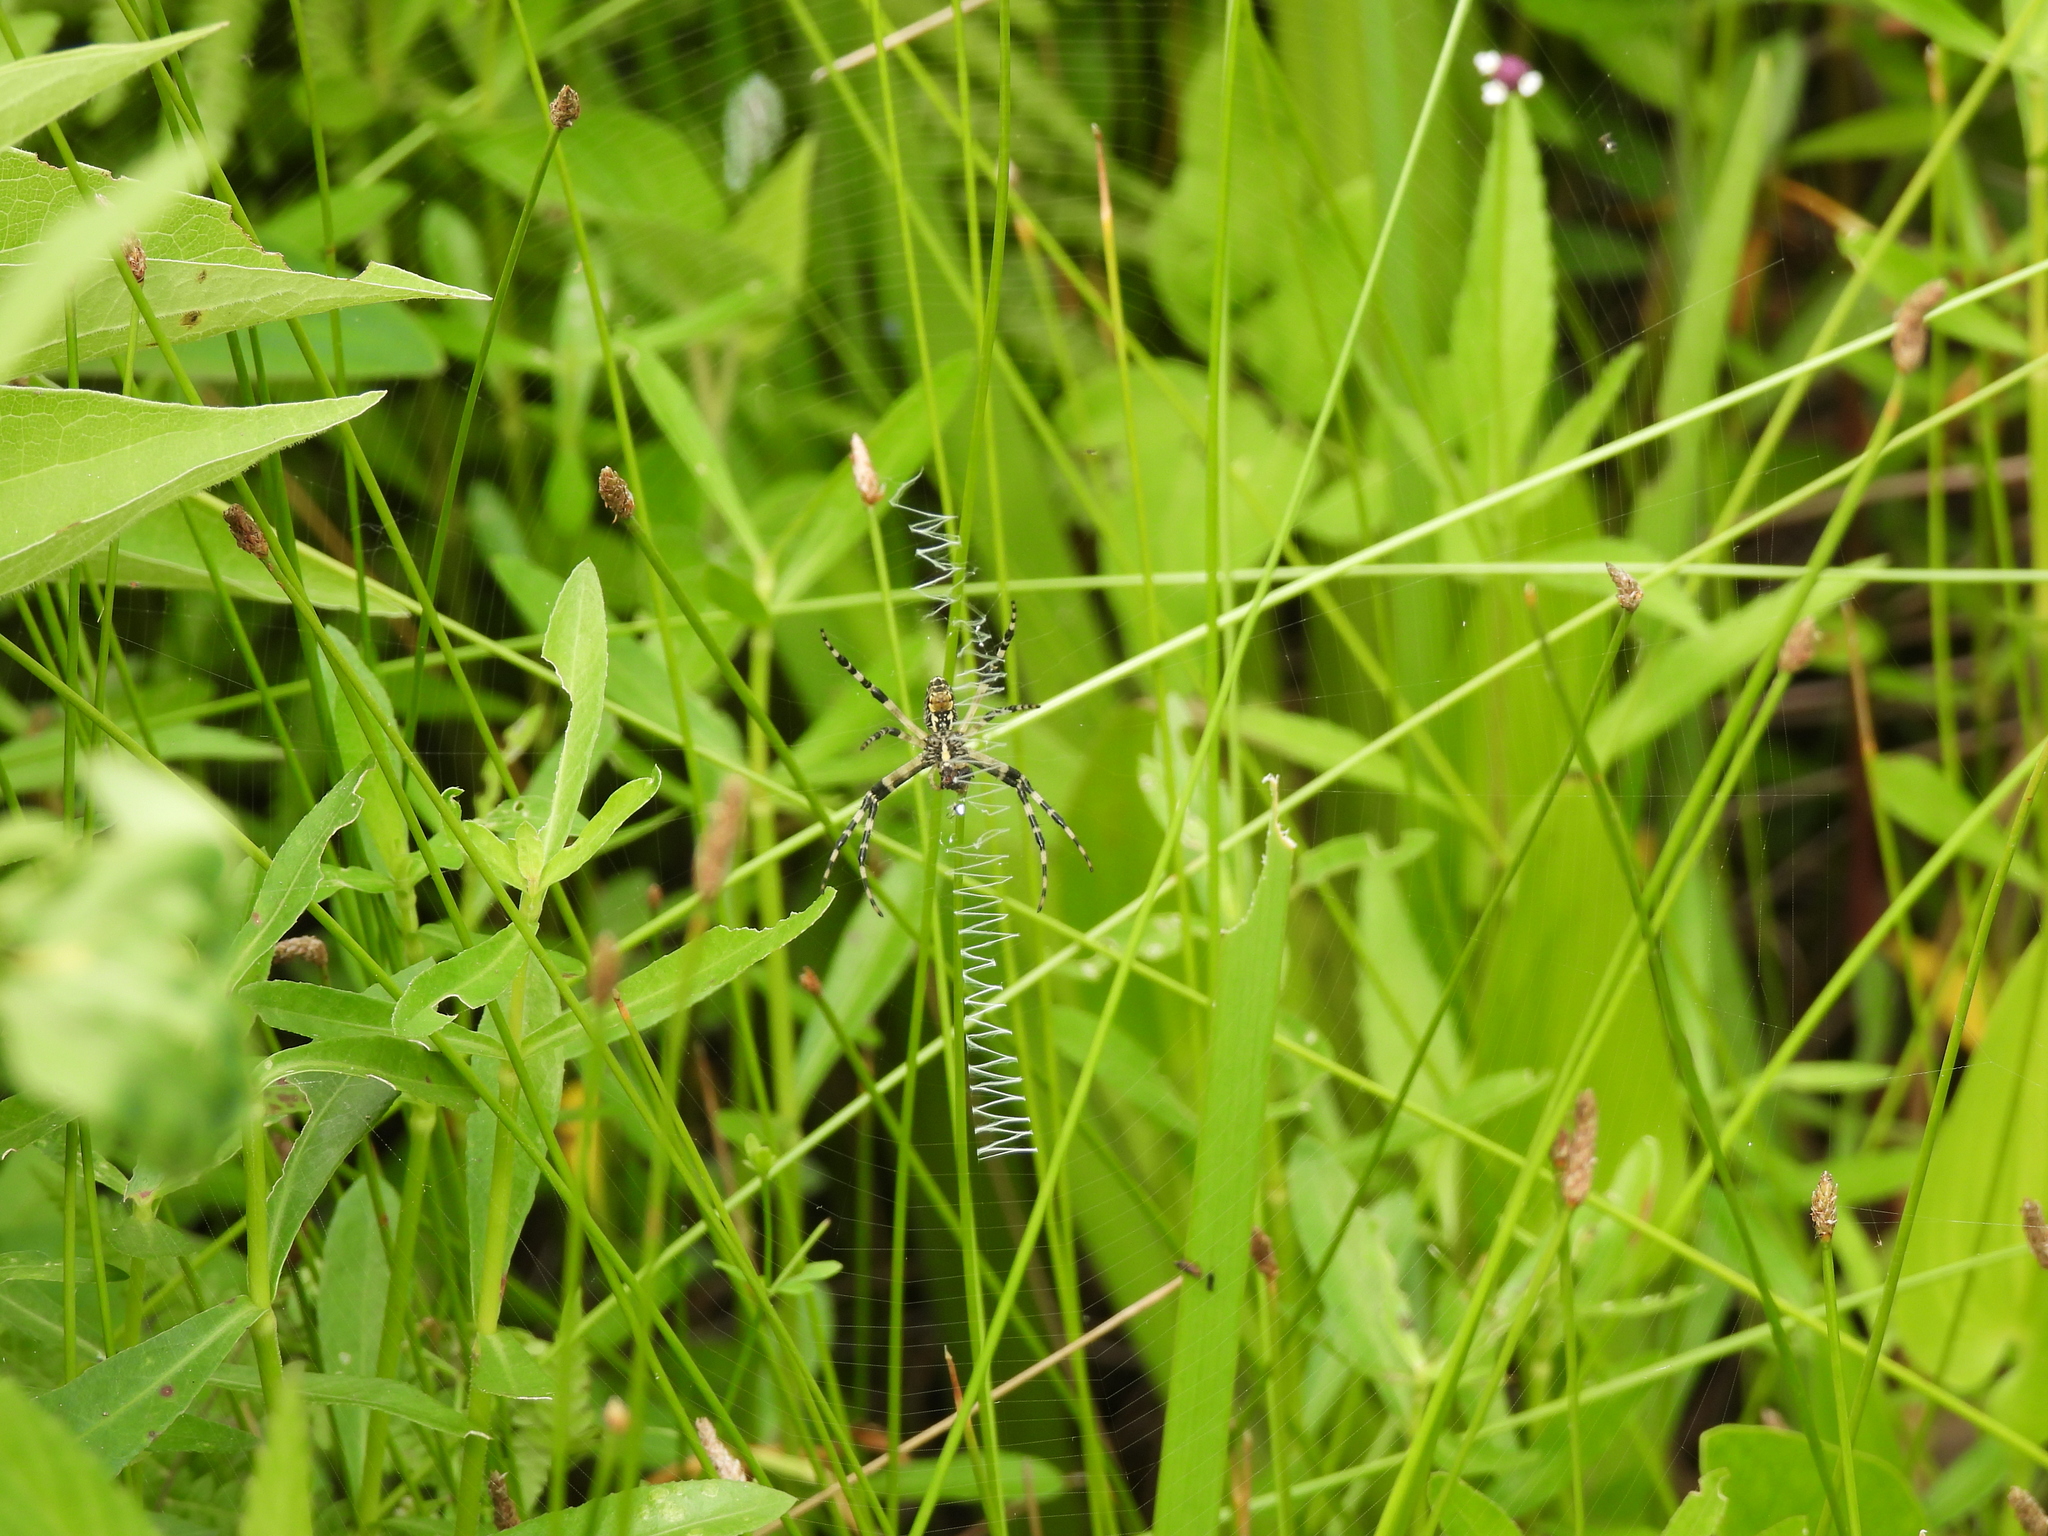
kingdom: Animalia
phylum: Arthropoda
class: Arachnida
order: Araneae
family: Araneidae
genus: Argiope
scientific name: Argiope aurantia
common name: Orb weavers
